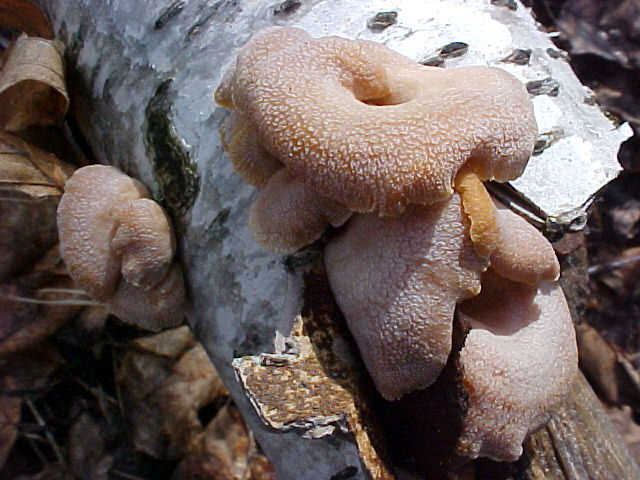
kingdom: Fungi
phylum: Basidiomycota
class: Agaricomycetes
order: Agaricales
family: Mycenaceae
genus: Panellus
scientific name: Panellus stipticus
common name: Bitter oysterling
